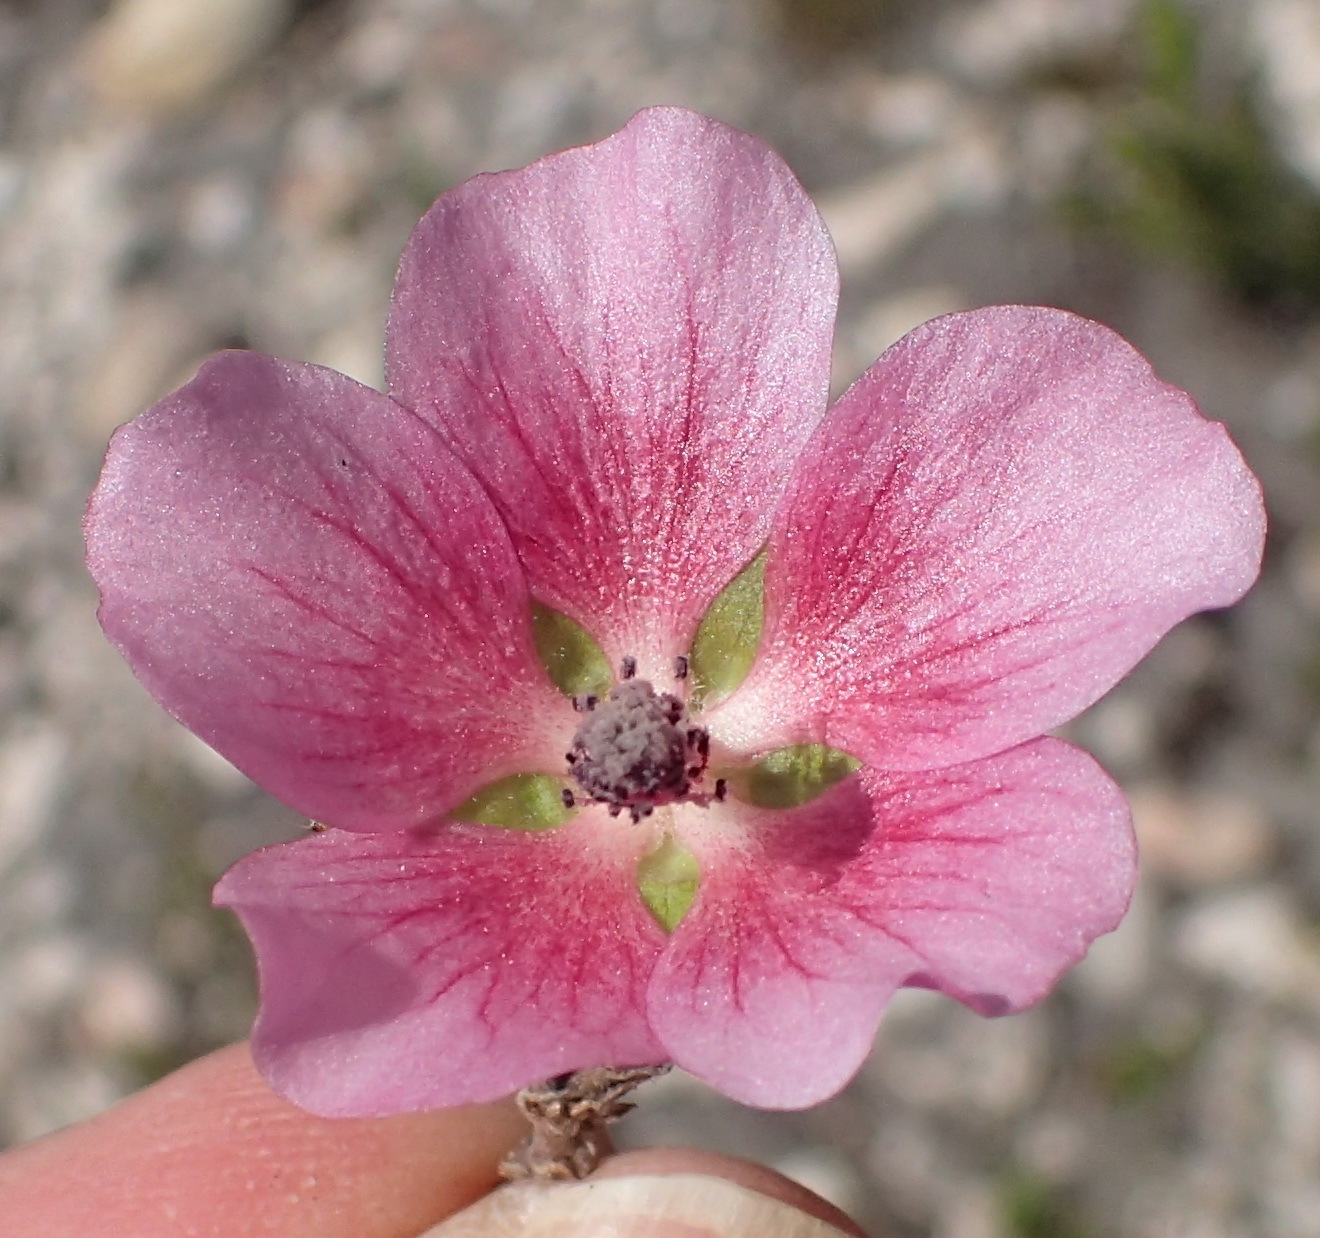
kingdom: Plantae
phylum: Tracheophyta
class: Magnoliopsida
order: Malvales
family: Malvaceae
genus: Anisodontea
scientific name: Anisodontea scabrosa
